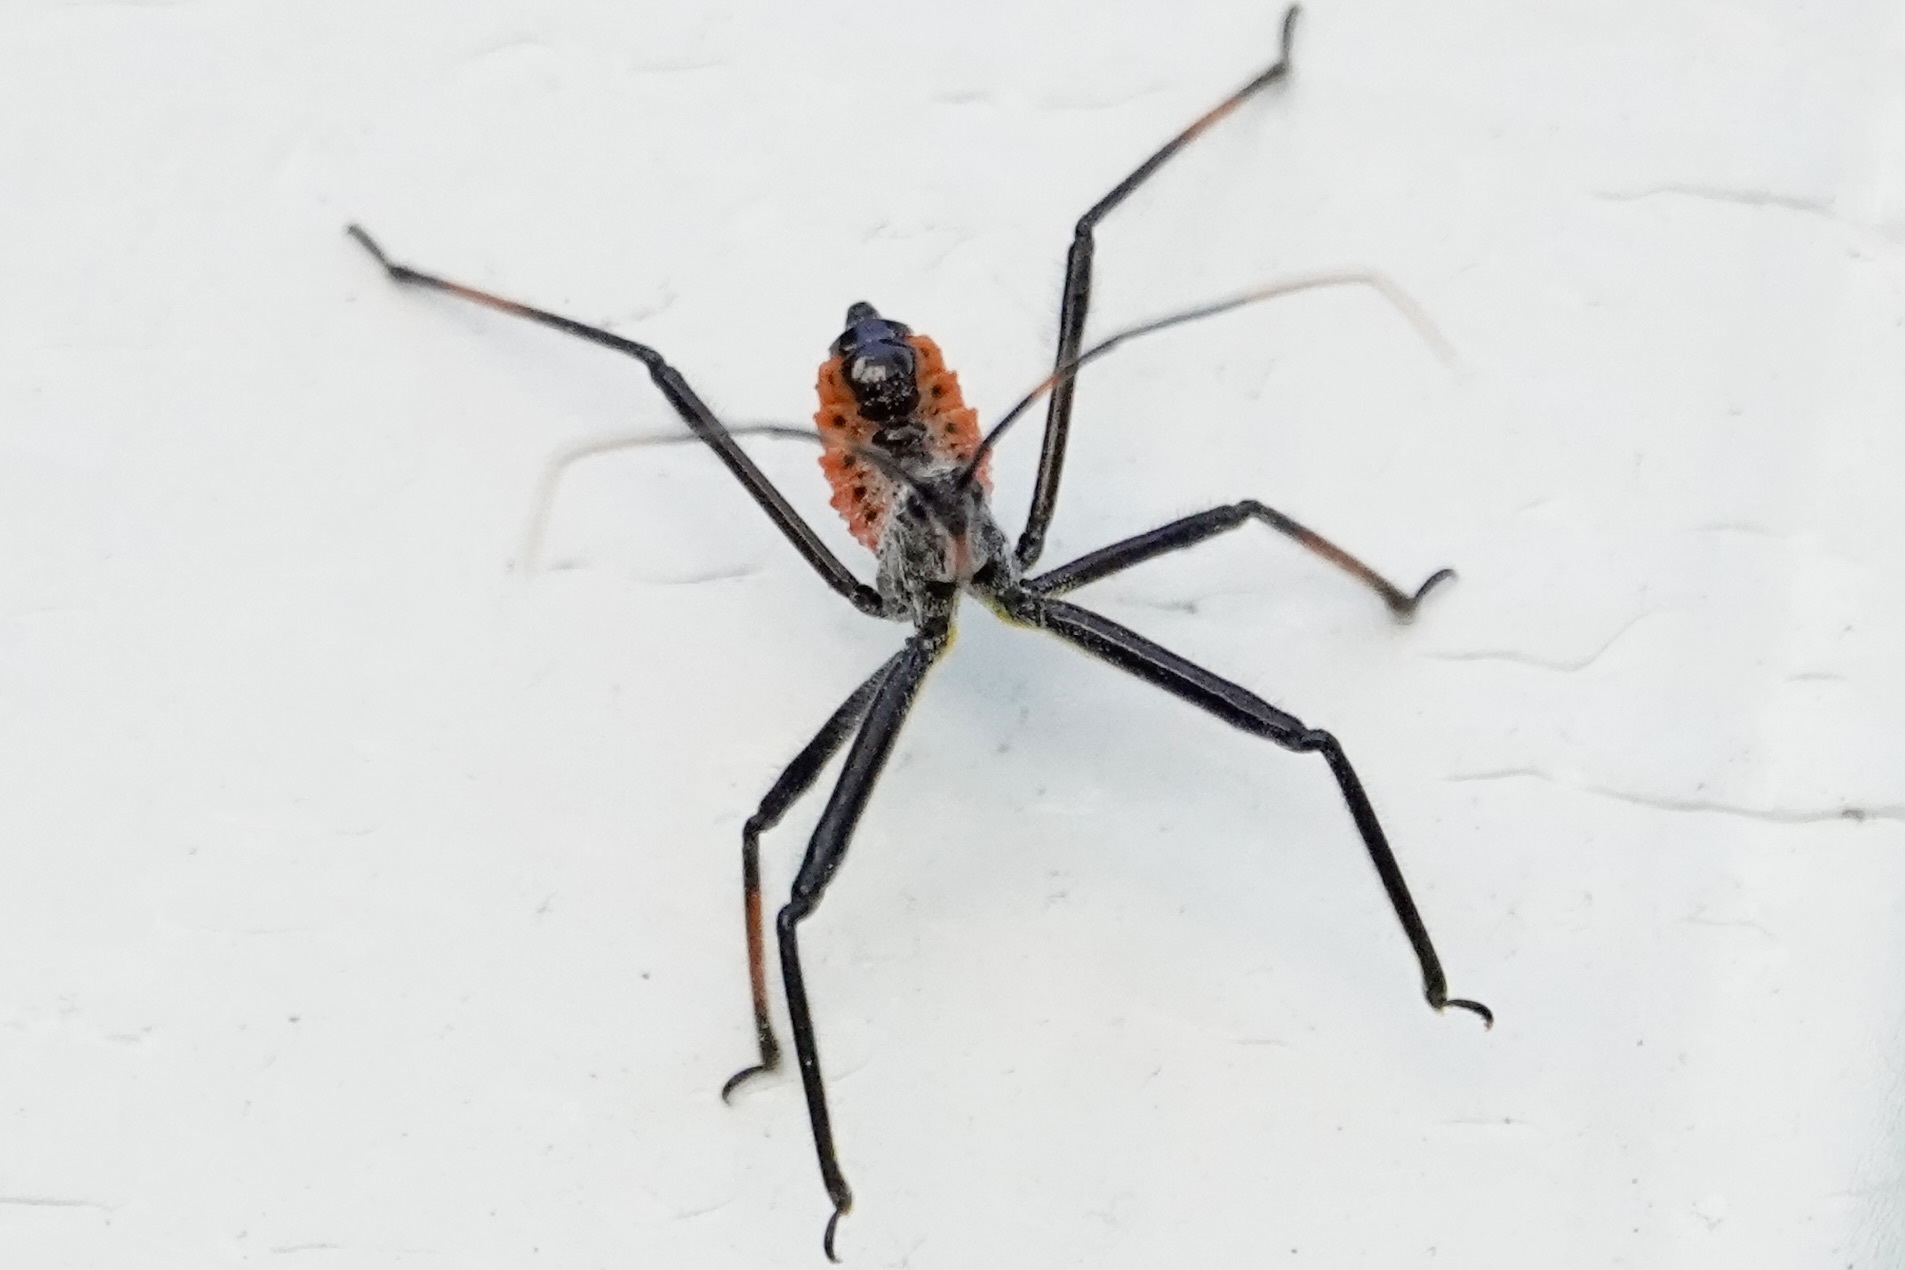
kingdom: Animalia
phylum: Arthropoda
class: Insecta
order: Hemiptera
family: Reduviidae
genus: Arilus
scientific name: Arilus cristatus
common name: North american wheel bug
